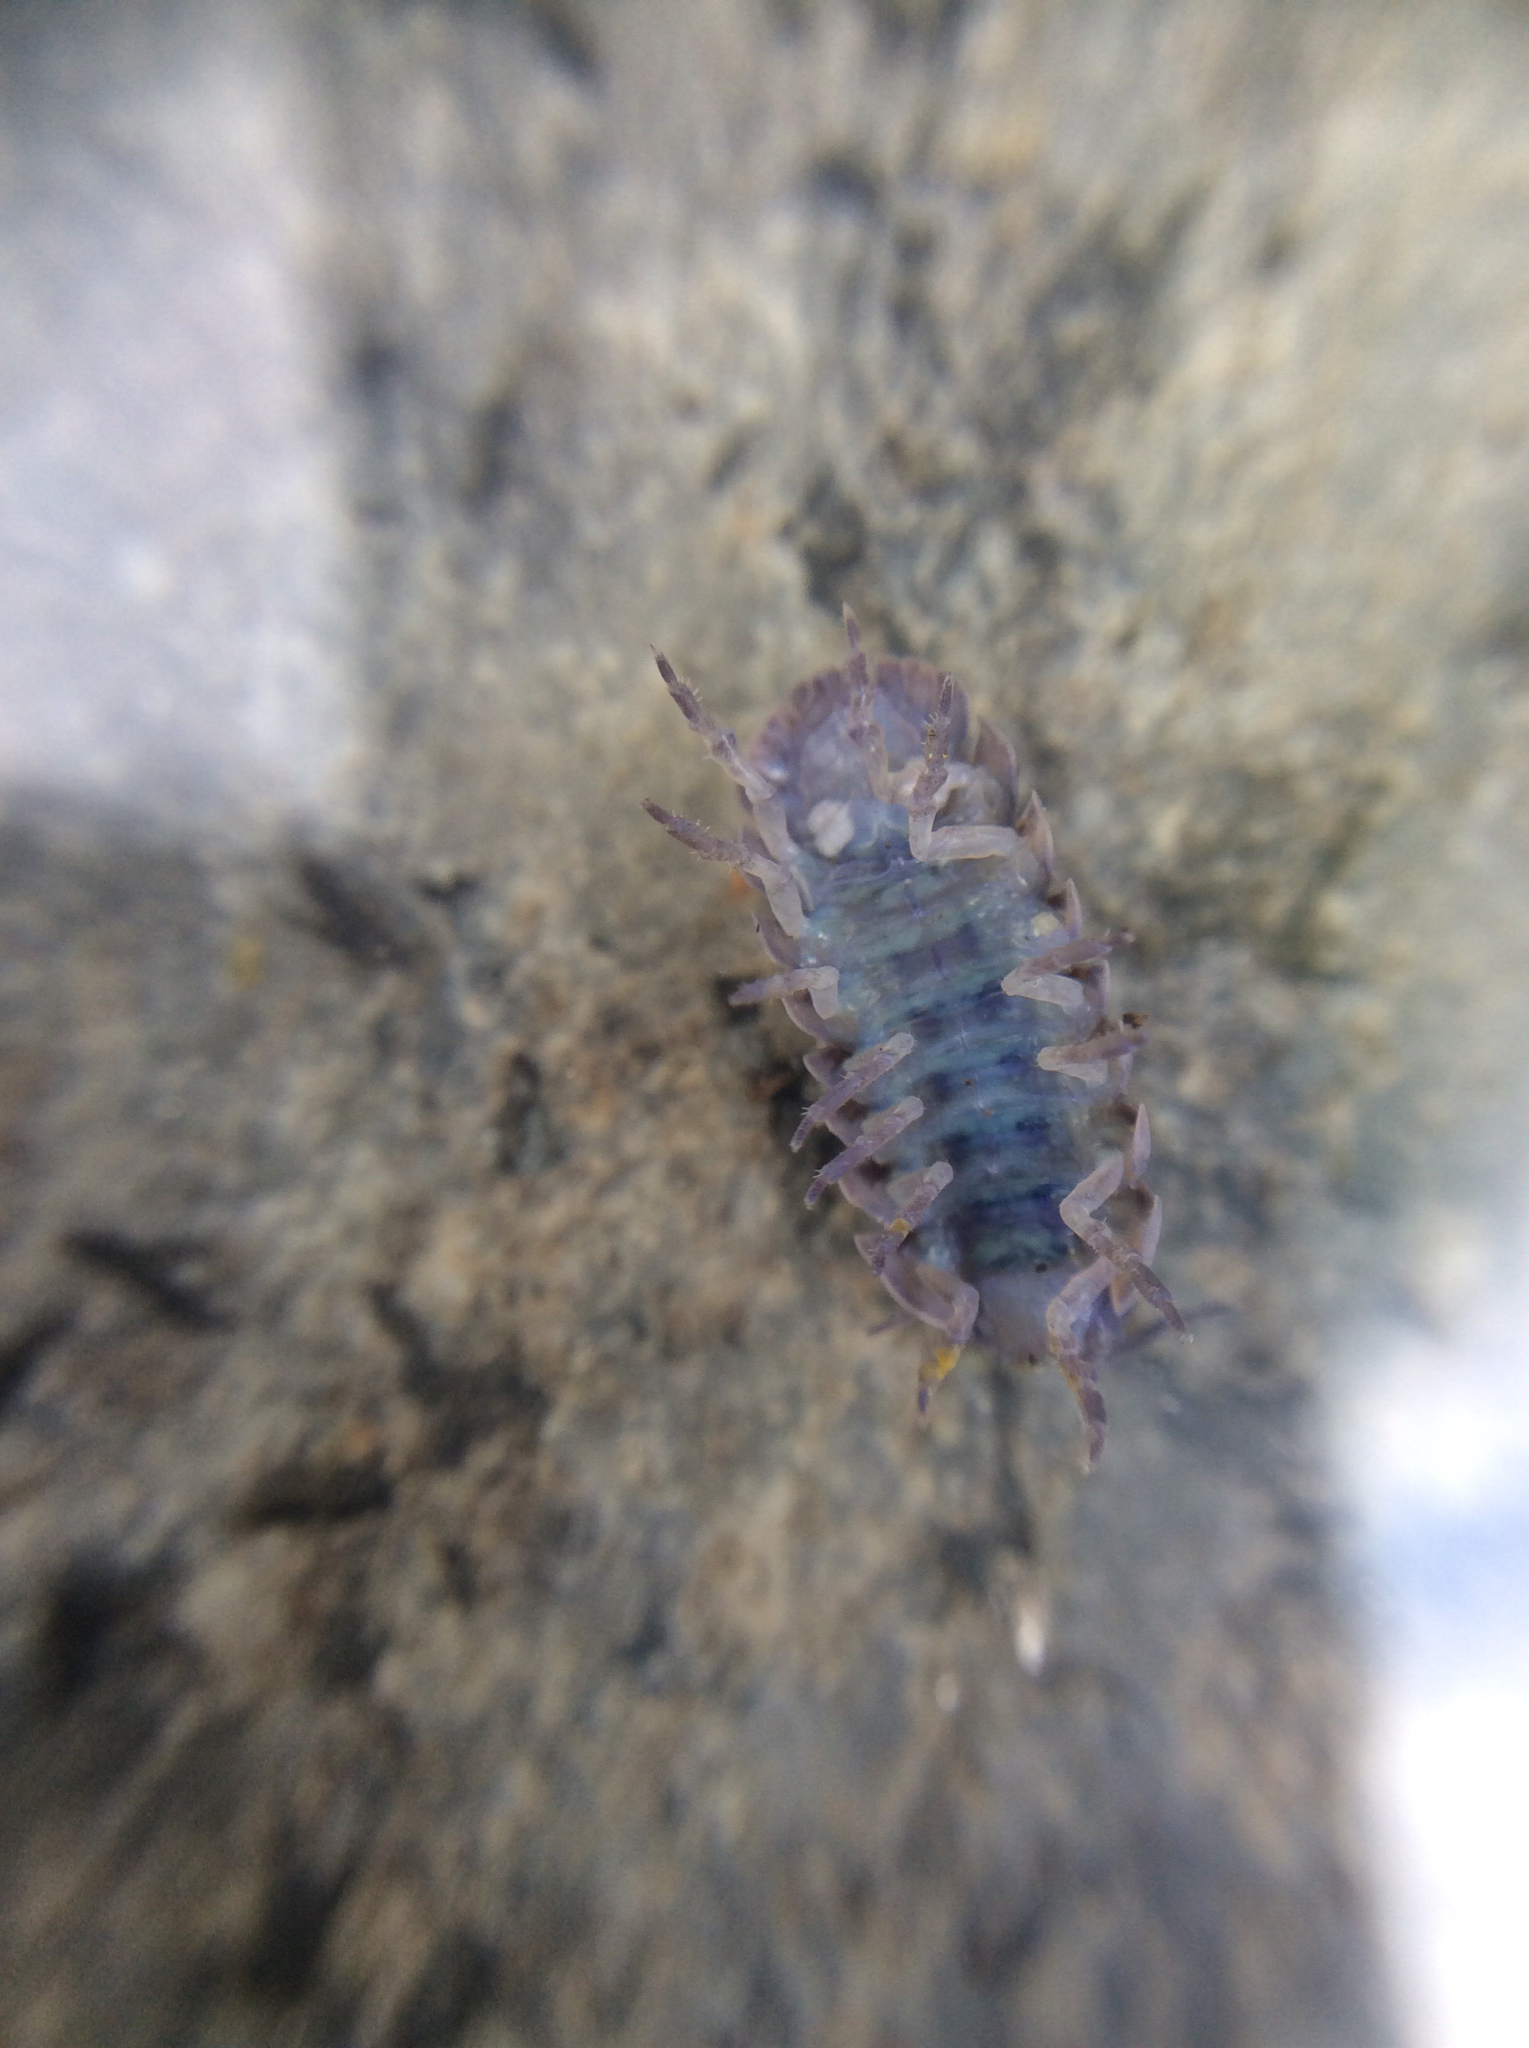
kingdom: Animalia
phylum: Arthropoda
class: Malacostraca
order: Isopoda
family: Armadillidiidae
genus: Armadillidium
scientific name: Armadillidium vulgare
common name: Common pill woodlouse
